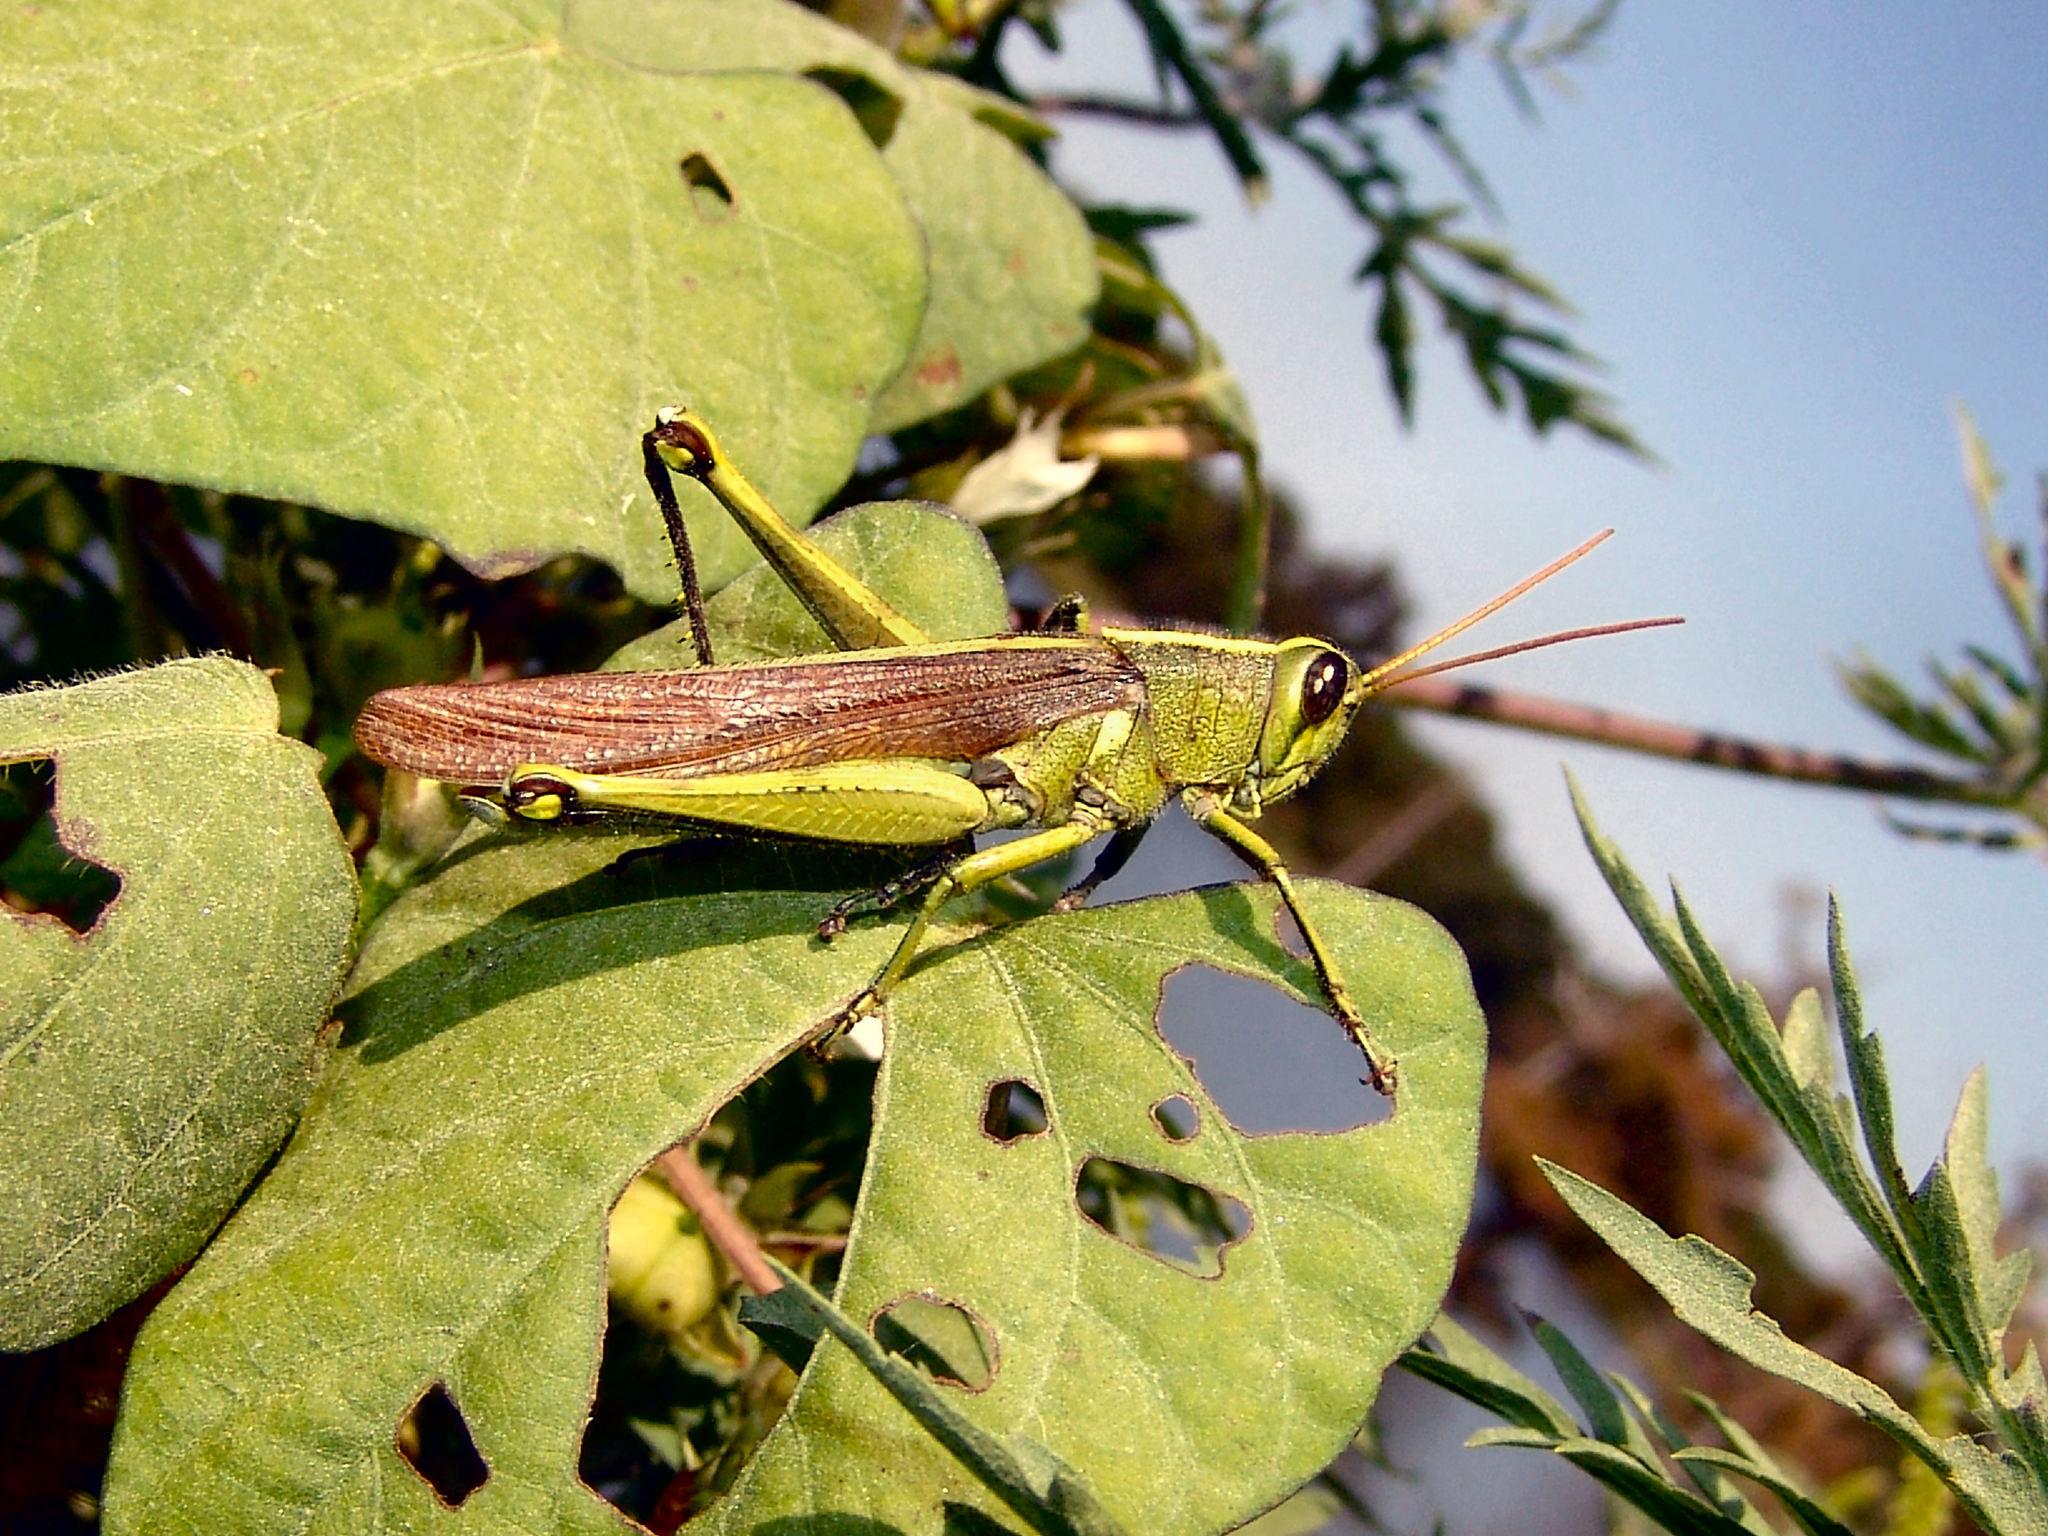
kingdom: Animalia
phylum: Arthropoda
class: Insecta
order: Orthoptera
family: Acrididae
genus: Schistocerca
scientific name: Schistocerca obscura
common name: Obscure bird grasshopper
